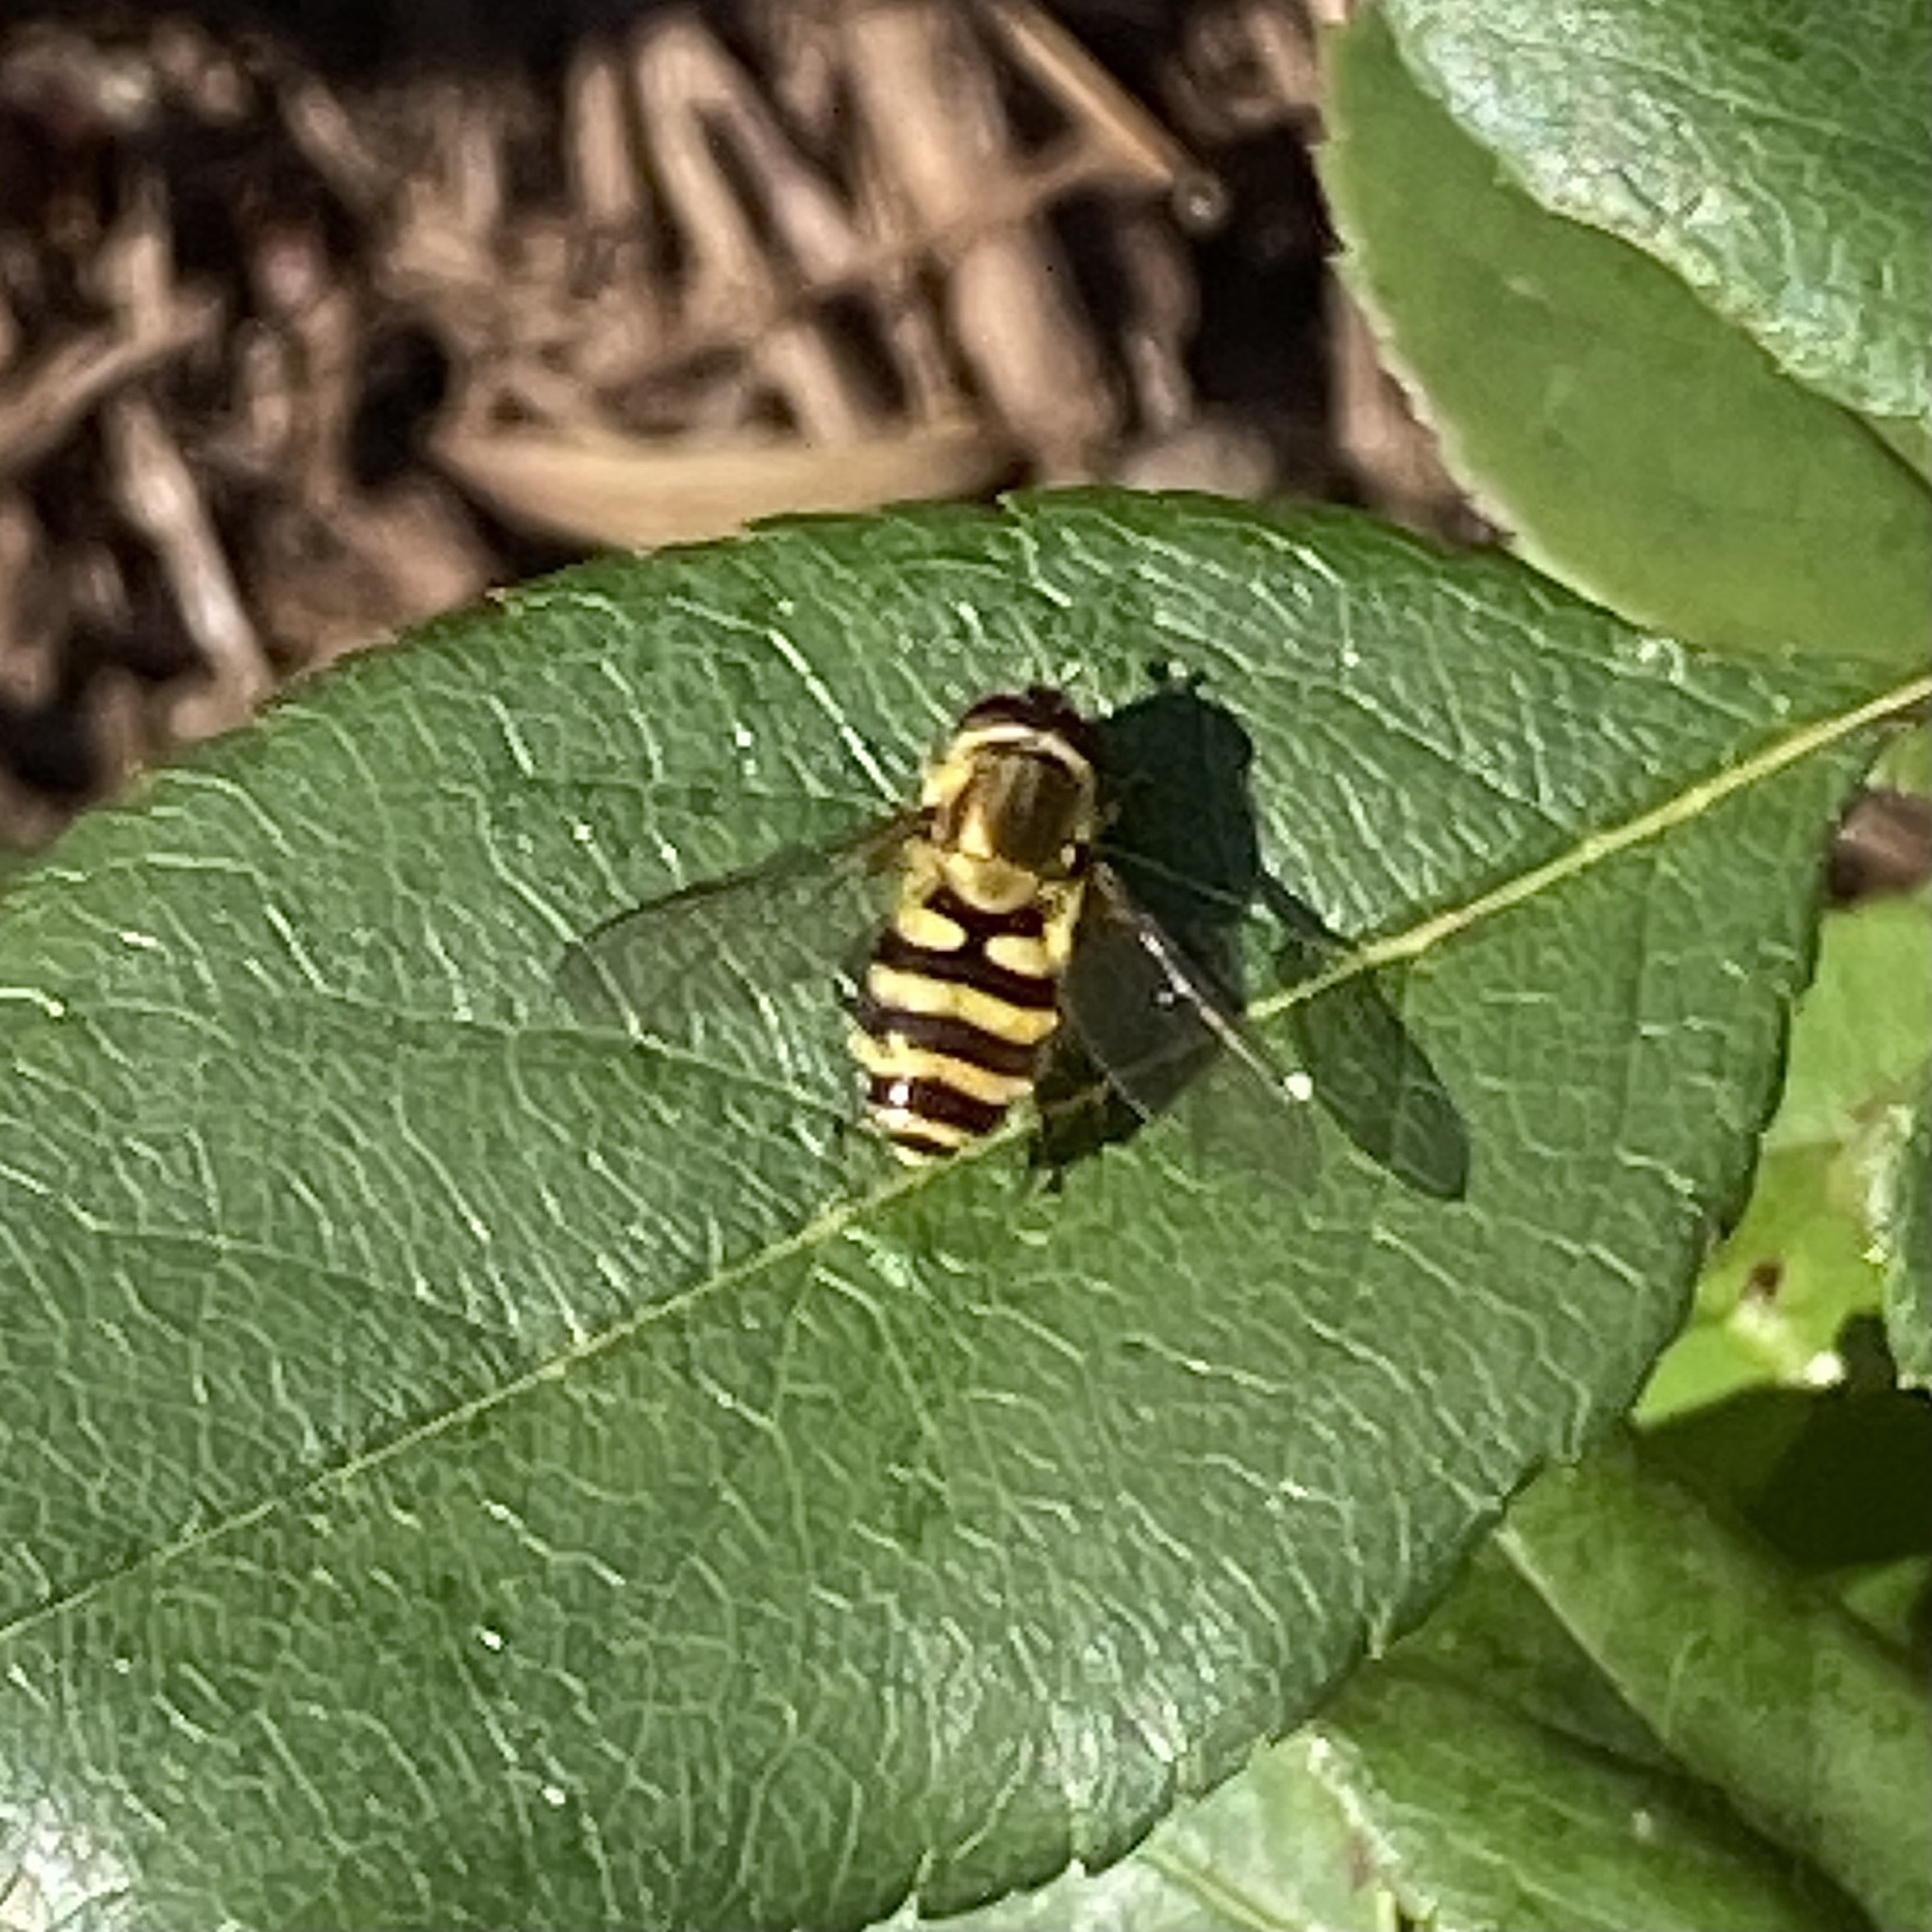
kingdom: Animalia
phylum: Arthropoda
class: Insecta
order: Diptera
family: Syrphidae
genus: Syrphus
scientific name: Syrphus
